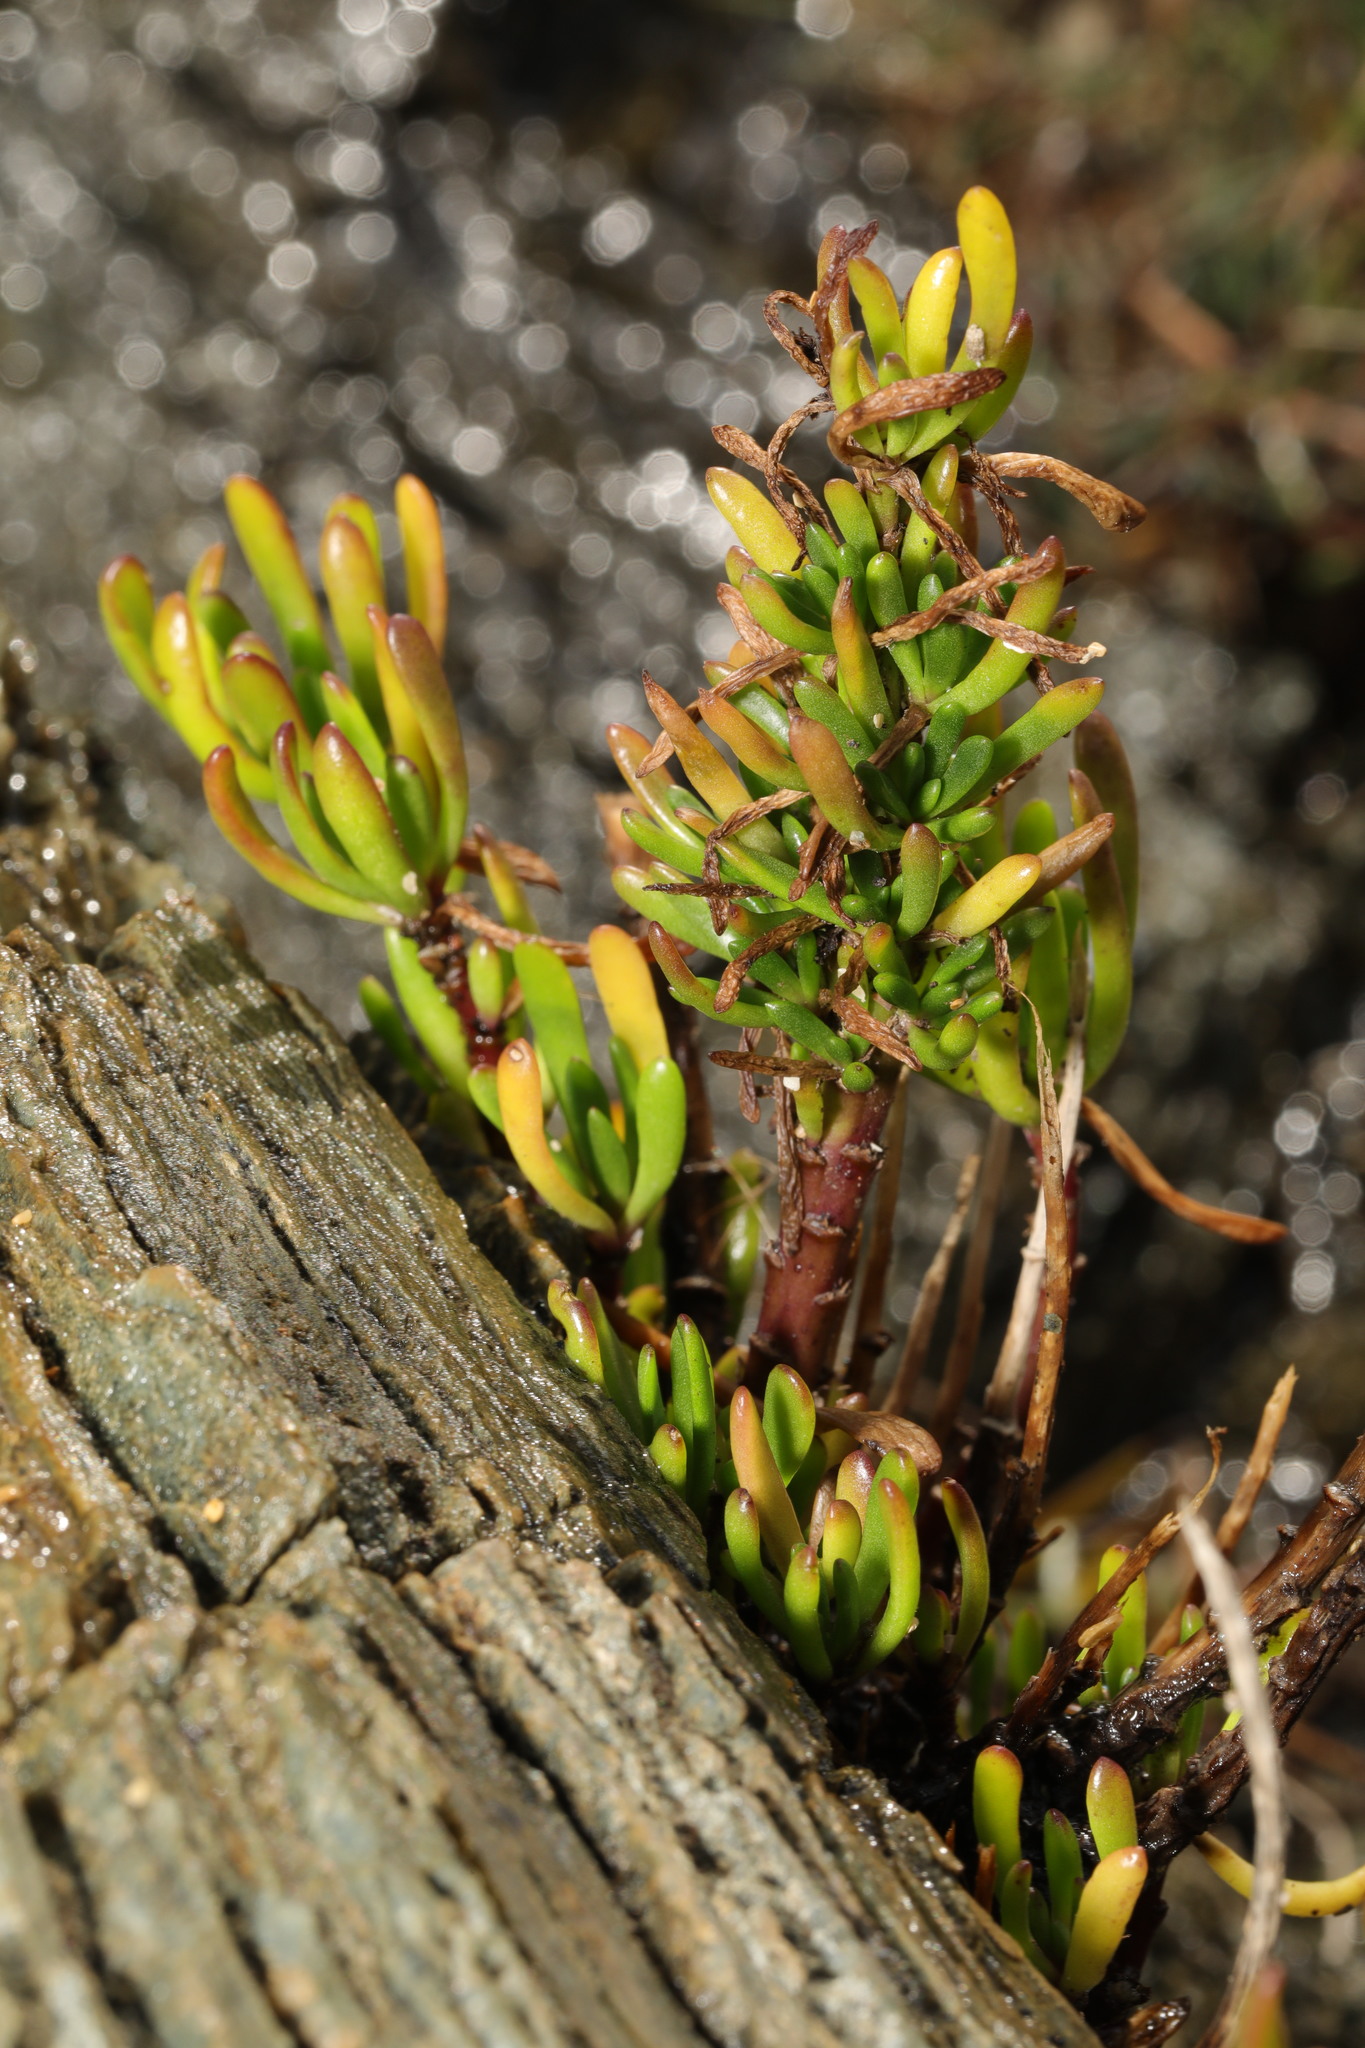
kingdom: Plantae
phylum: Tracheophyta
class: Magnoliopsida
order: Asterales
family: Asteraceae
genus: Limbarda
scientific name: Limbarda crithmoides
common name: Golden samphire
